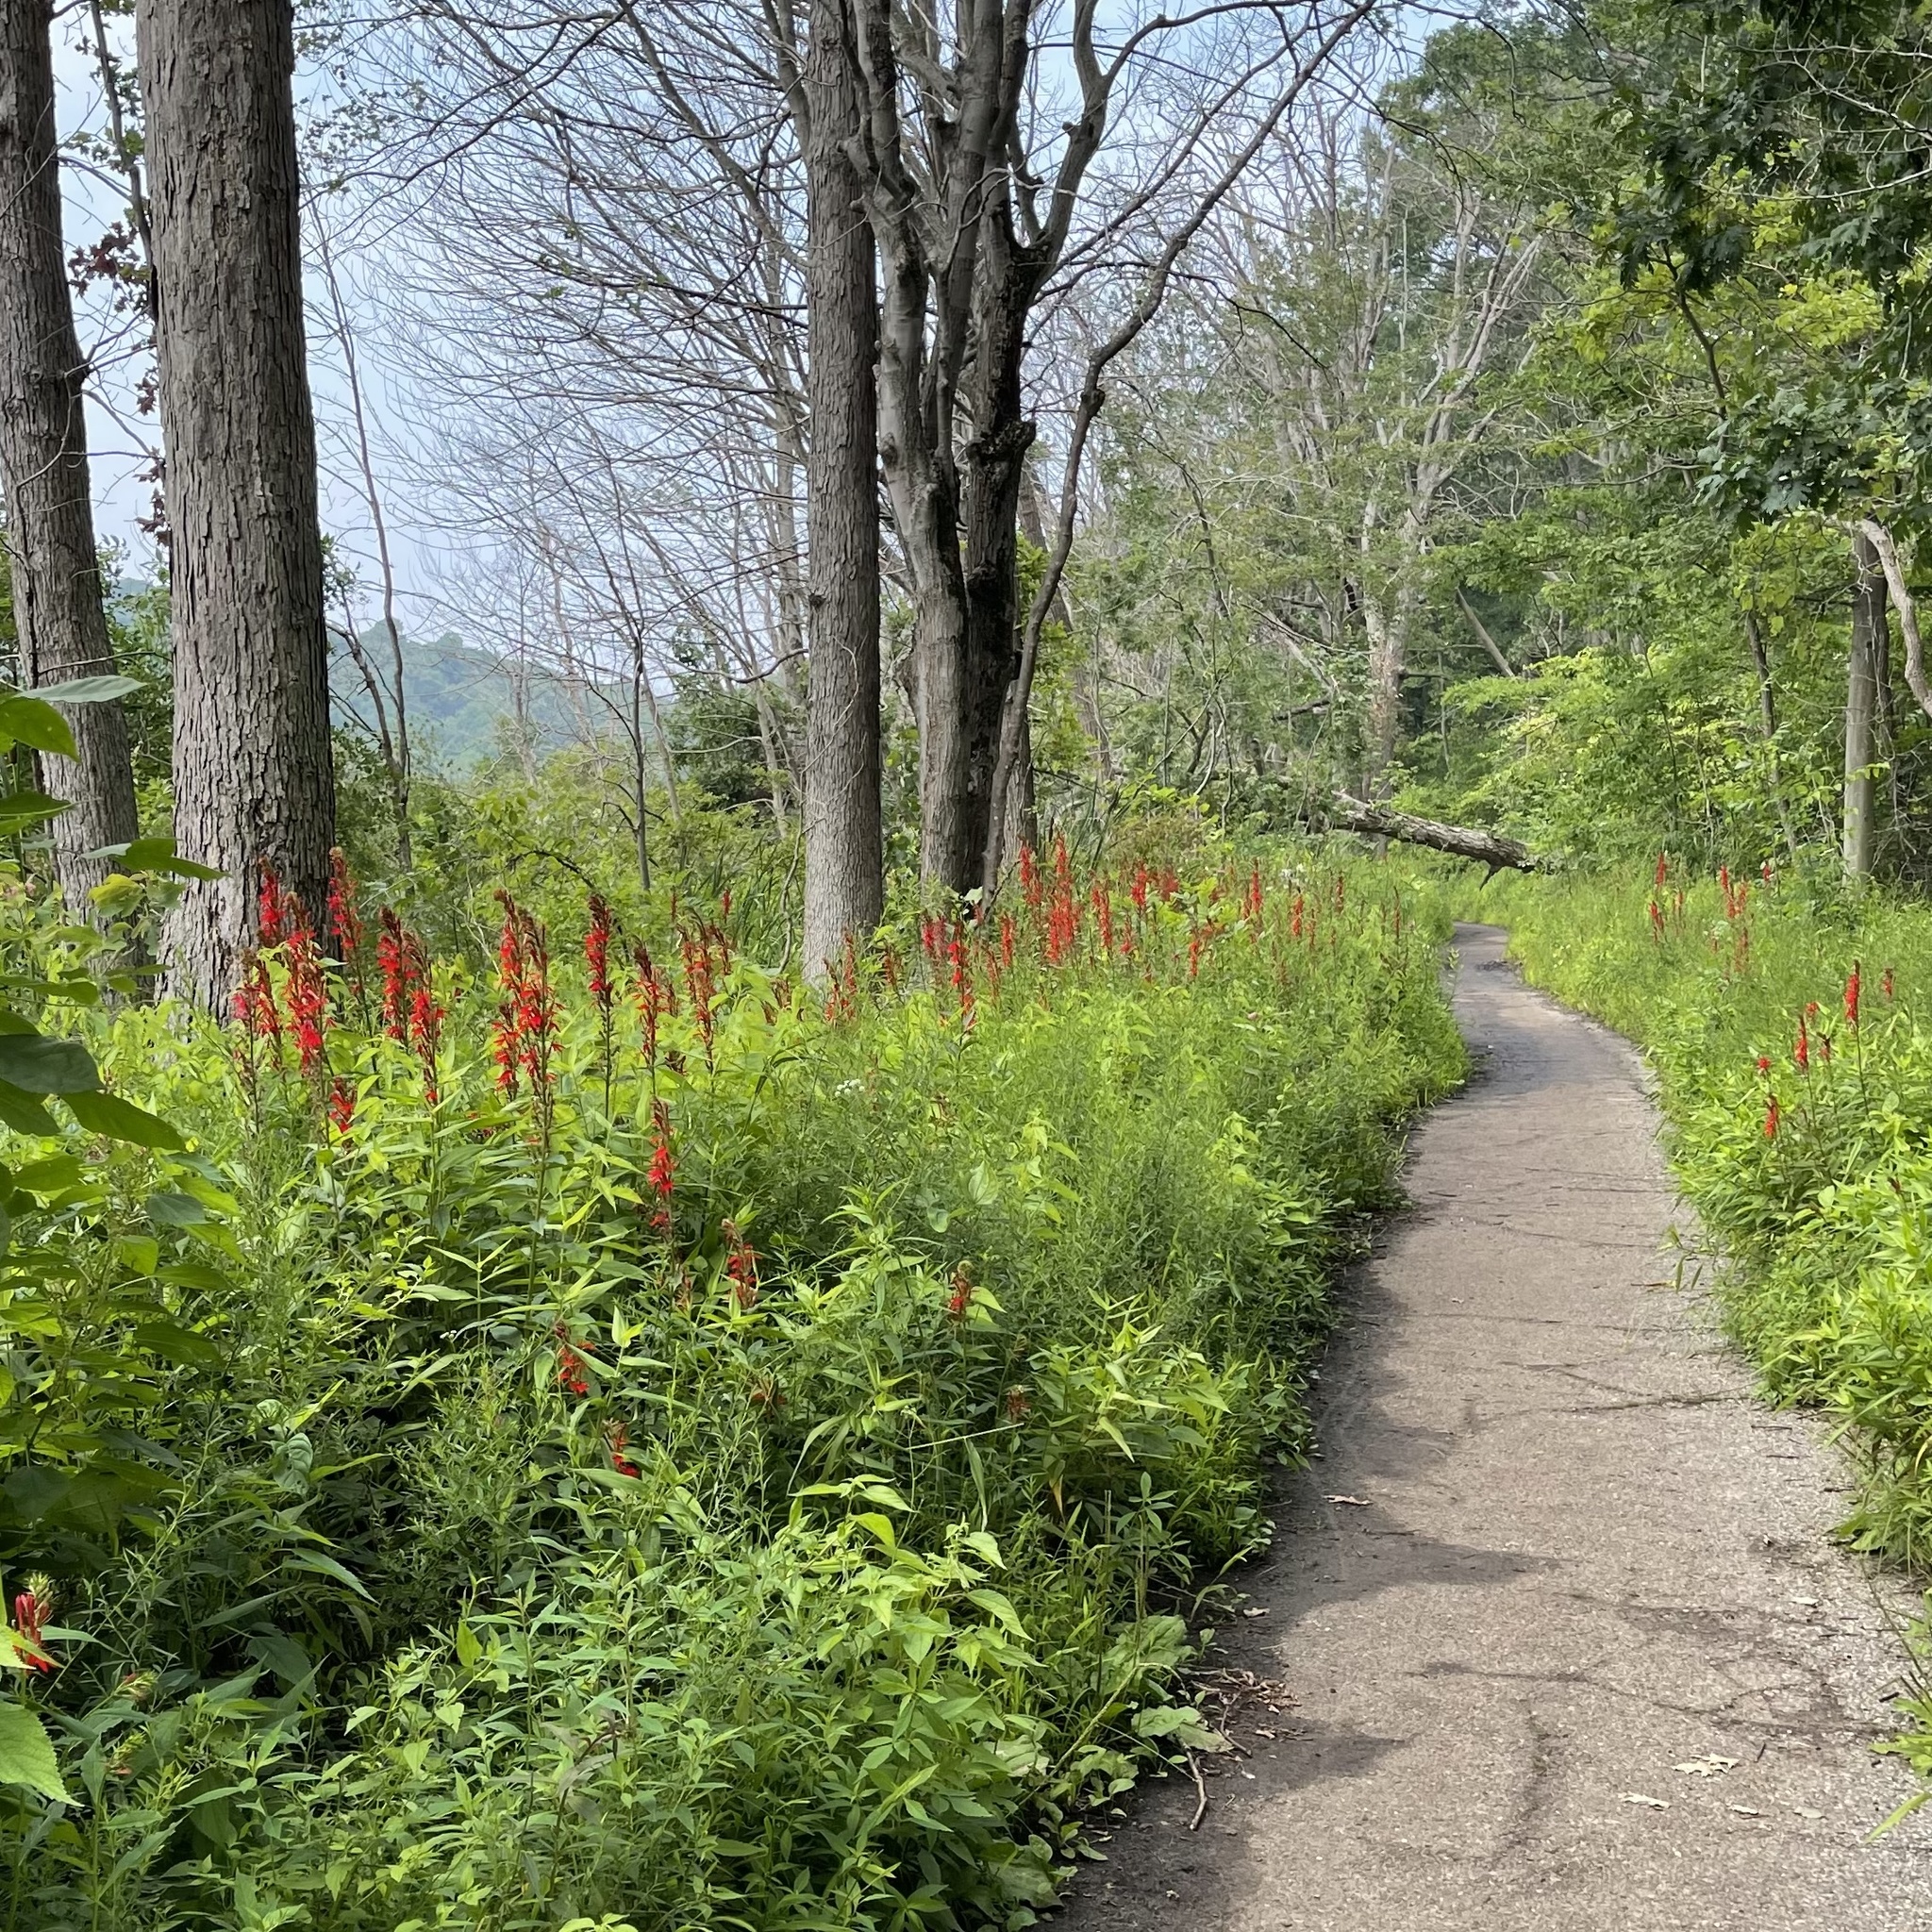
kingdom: Plantae
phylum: Tracheophyta
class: Magnoliopsida
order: Asterales
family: Campanulaceae
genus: Lobelia
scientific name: Lobelia cardinalis
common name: Cardinal flower
